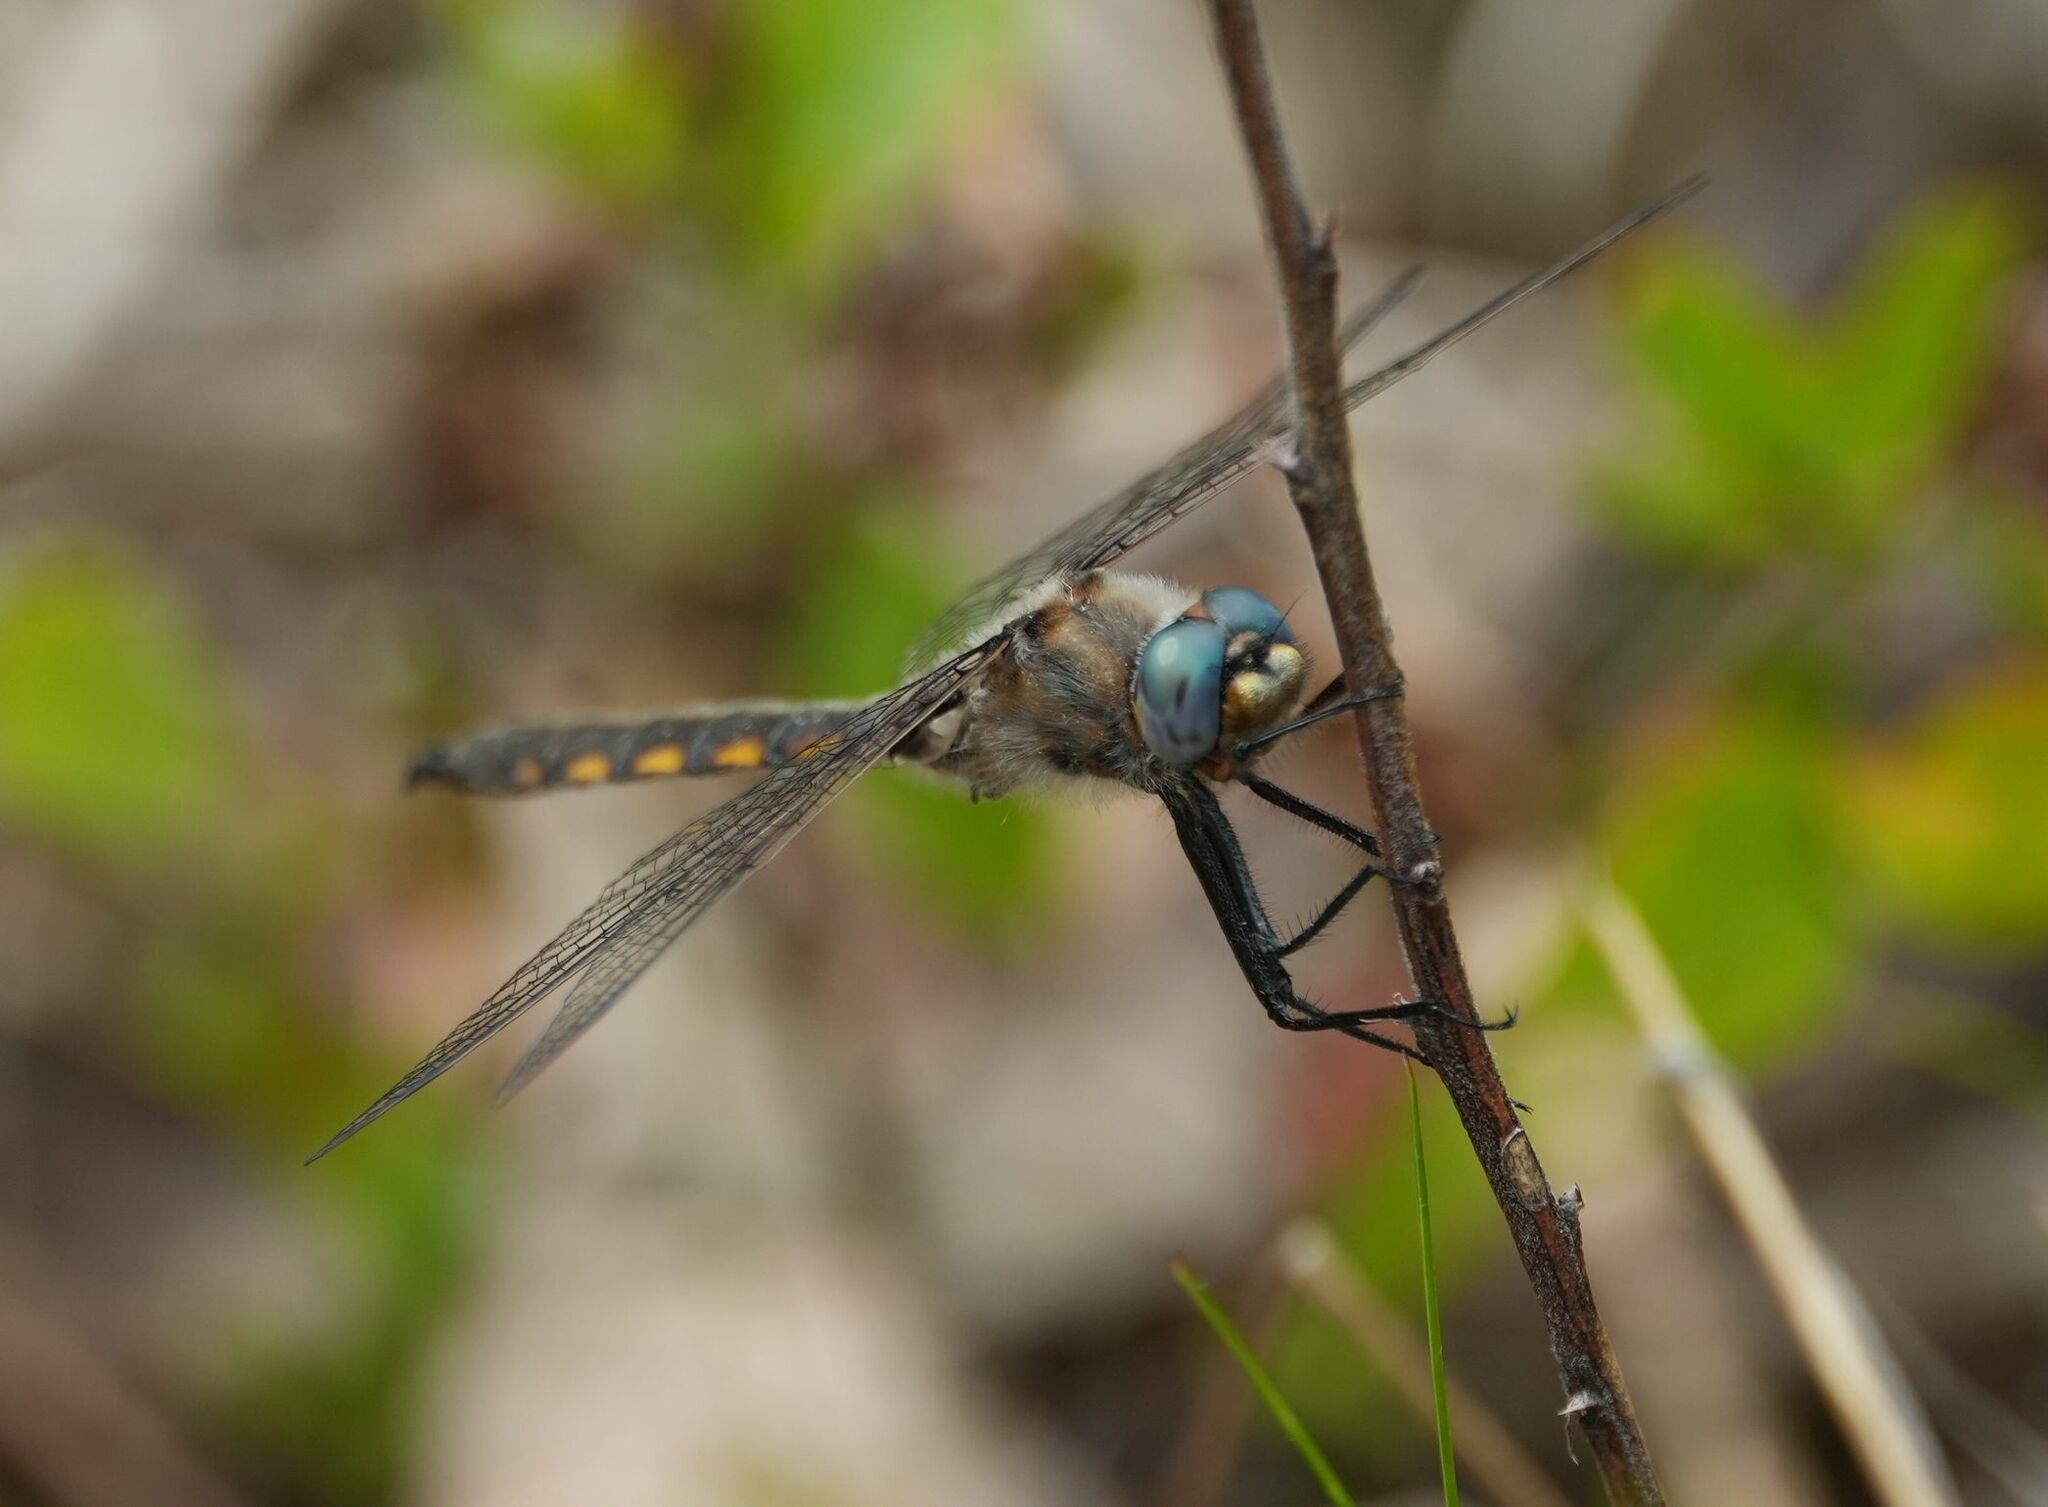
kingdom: Animalia
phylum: Arthropoda
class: Insecta
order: Odonata
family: Corduliidae
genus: Epitheca
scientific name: Epitheca canis
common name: Beaverpond baskettail
